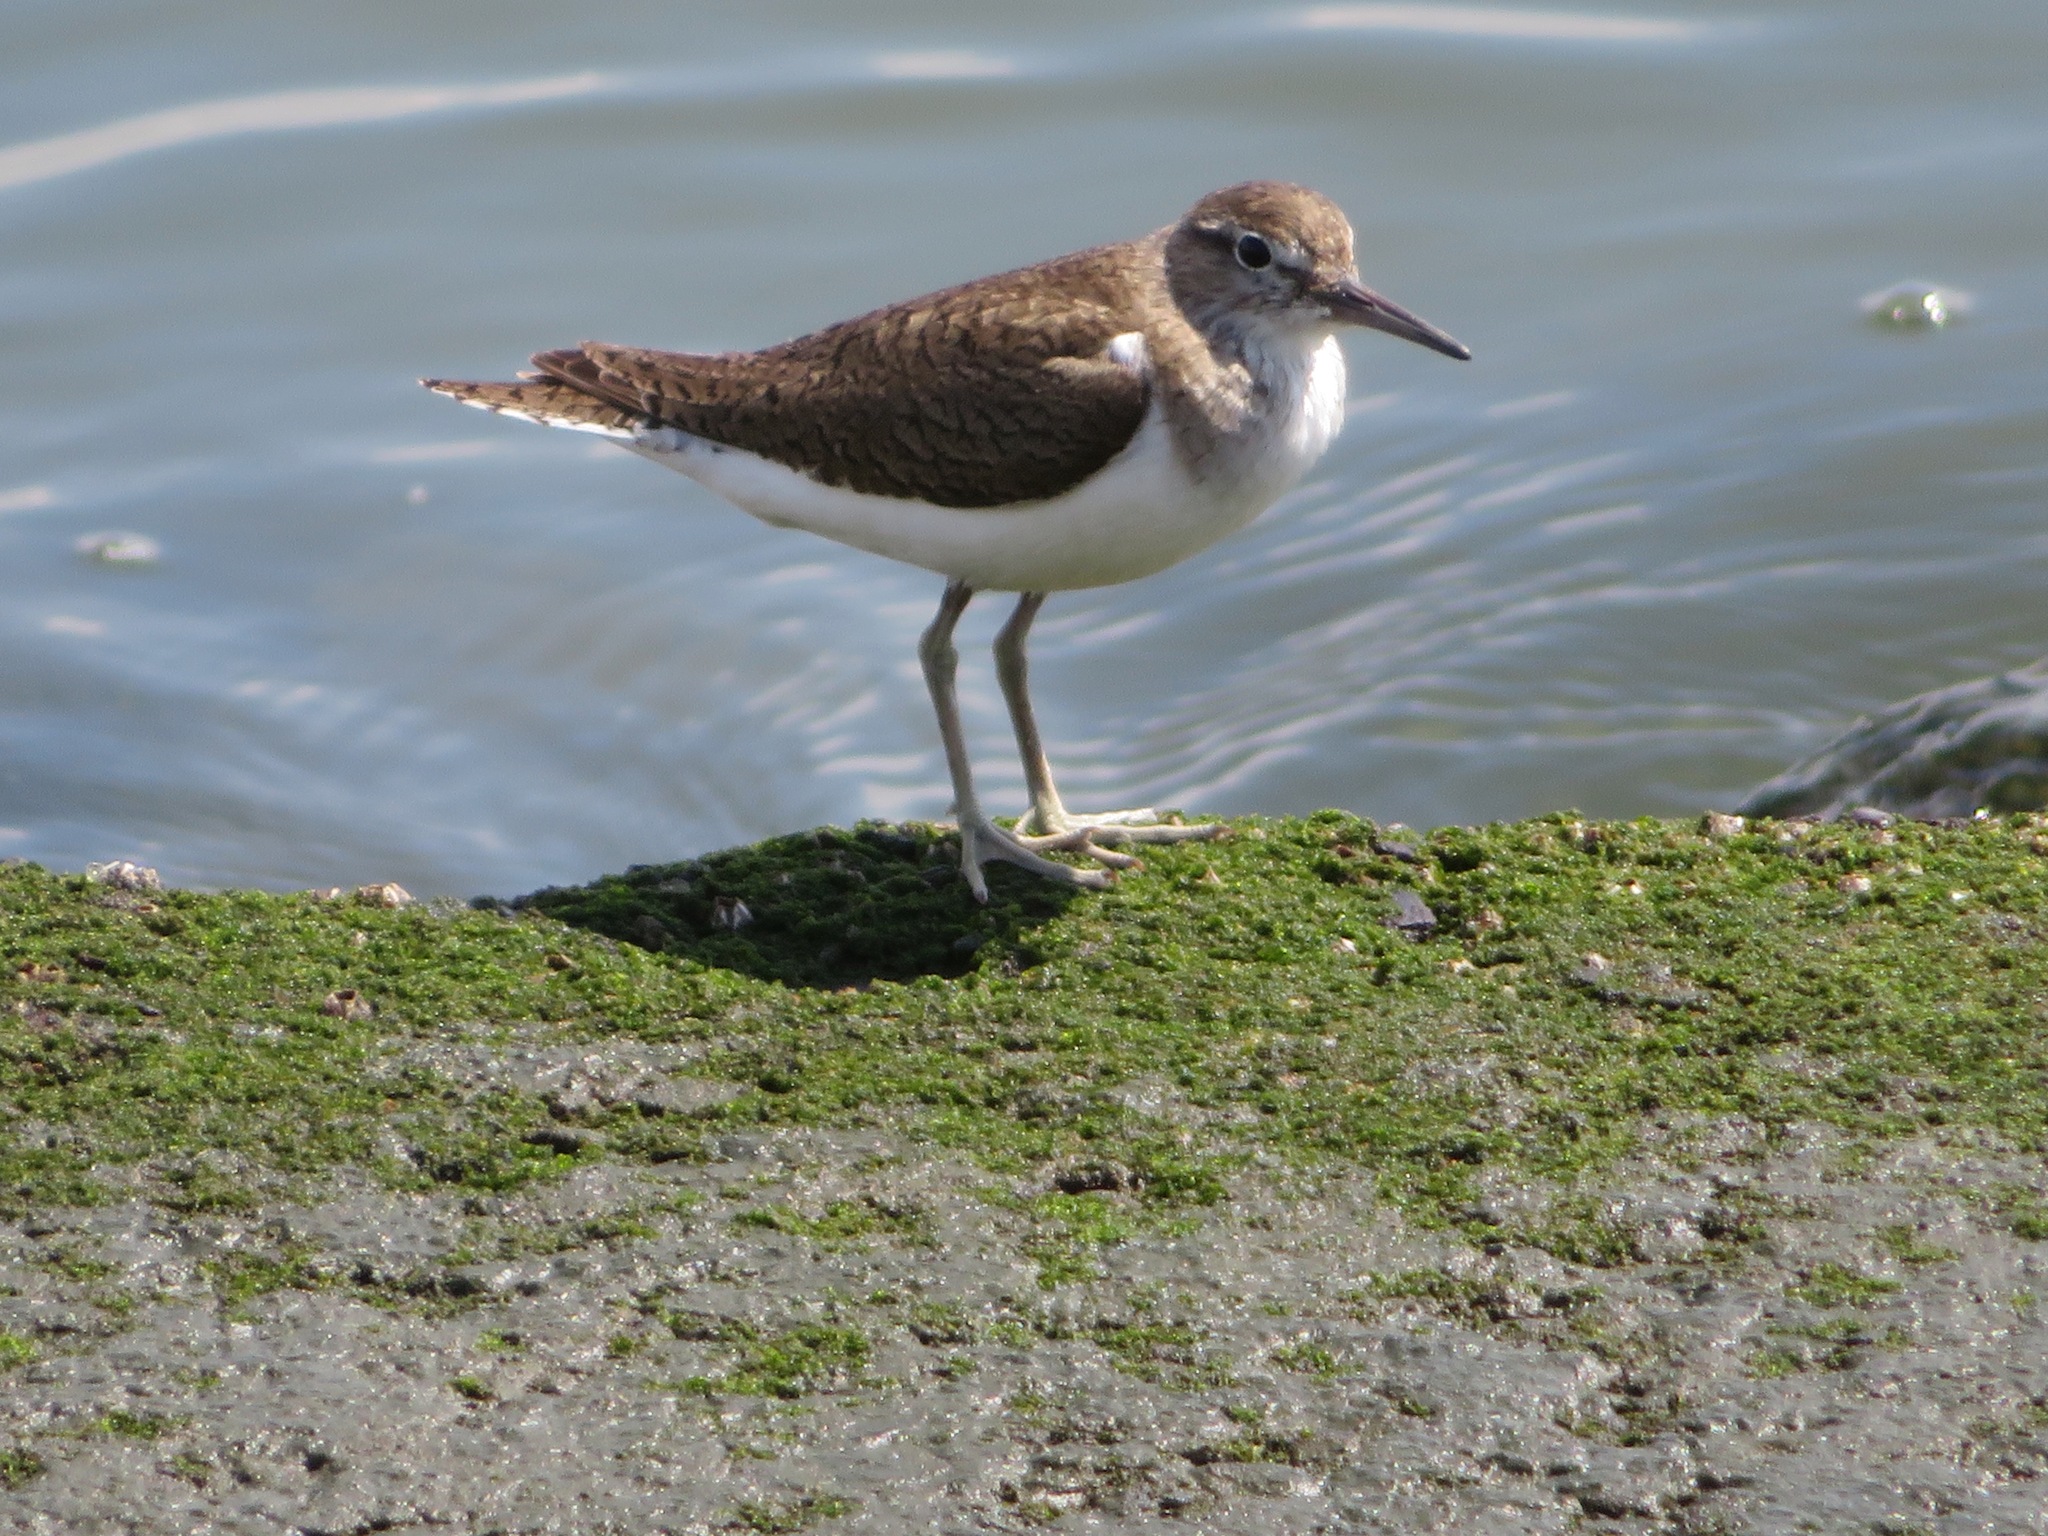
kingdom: Animalia
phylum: Chordata
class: Aves
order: Charadriiformes
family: Scolopacidae
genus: Actitis
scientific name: Actitis hypoleucos
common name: Common sandpiper
